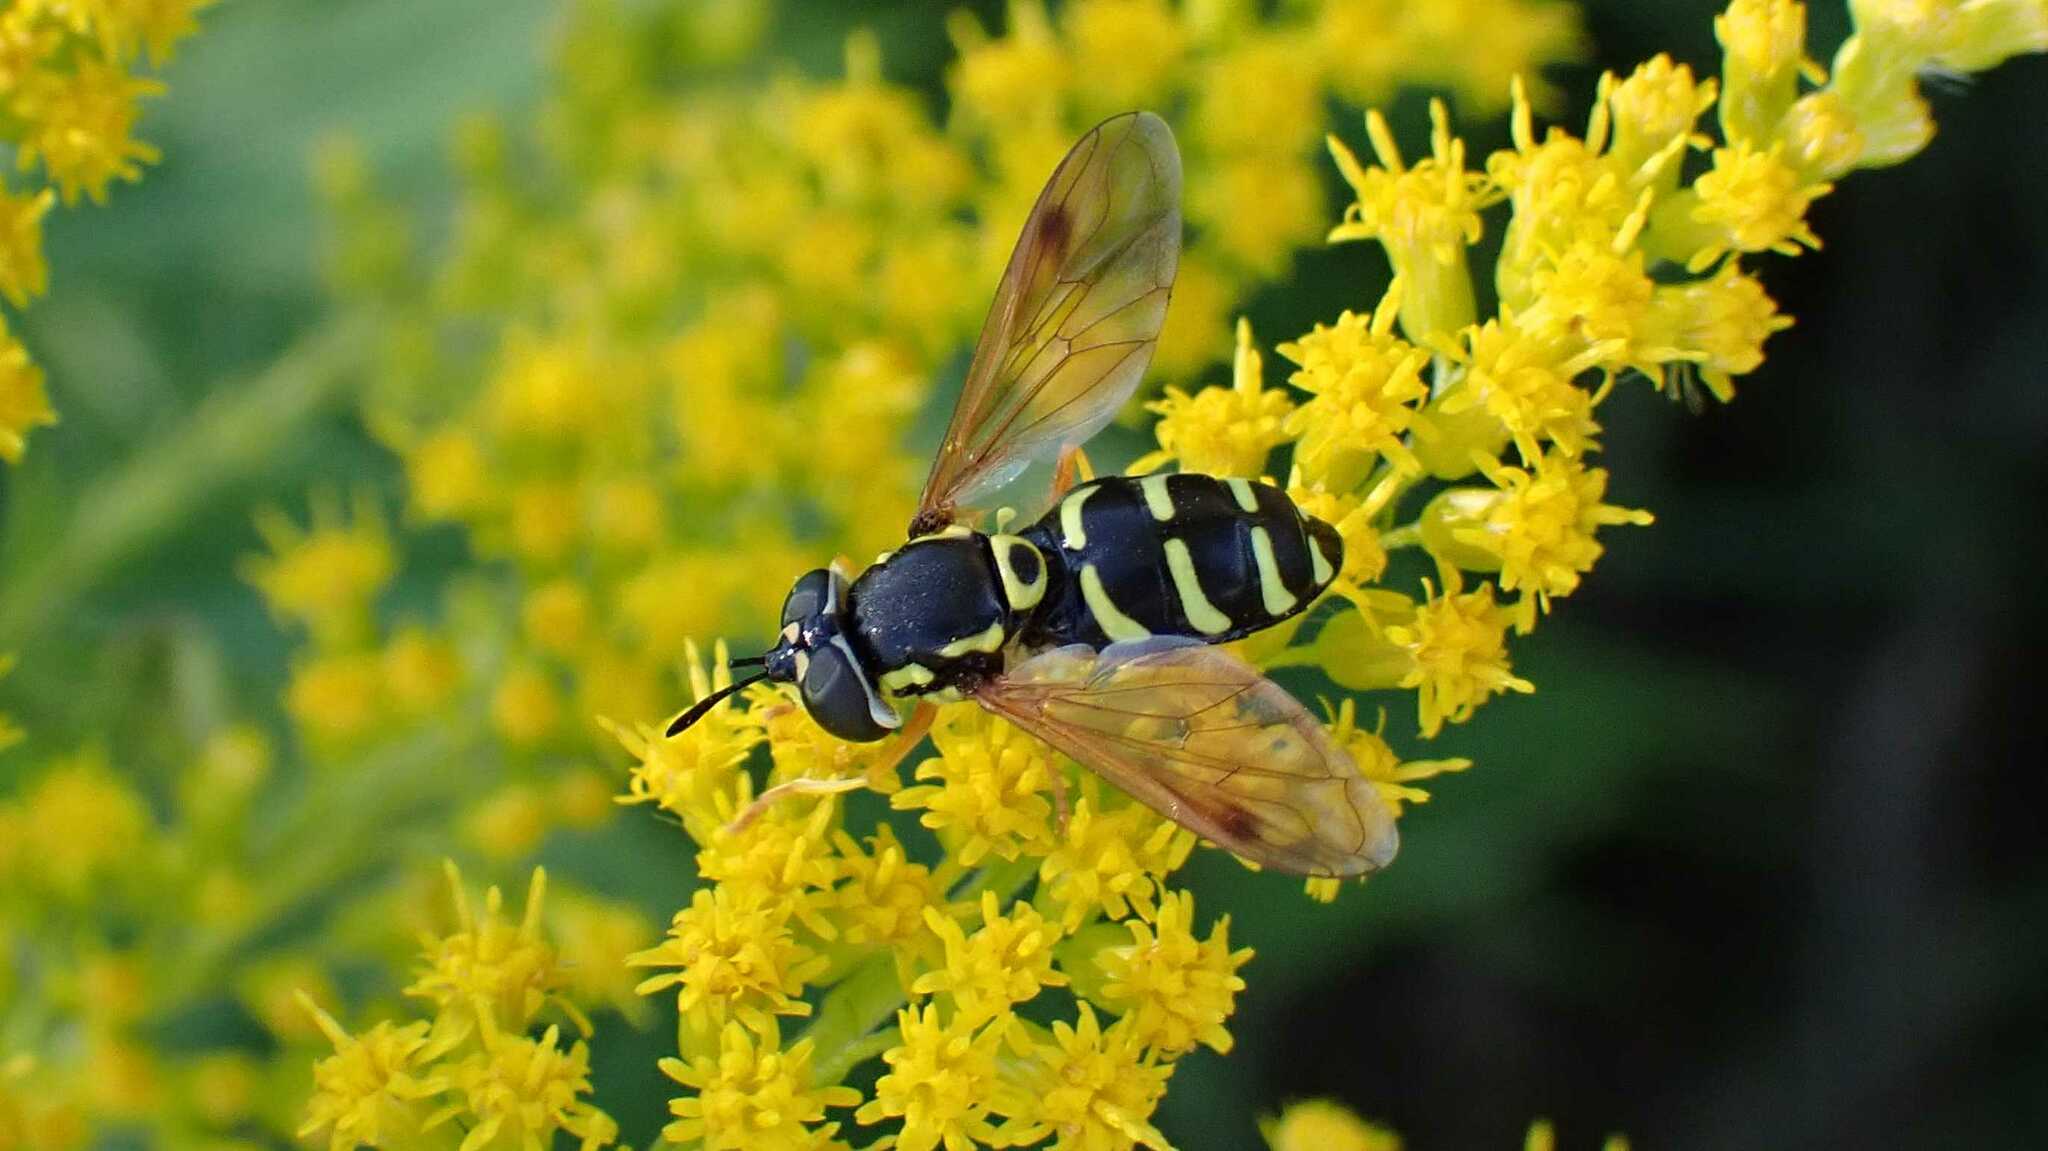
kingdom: Animalia
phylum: Arthropoda
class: Insecta
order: Diptera
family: Syrphidae
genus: Chrysotoxum
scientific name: Chrysotoxum festivum
